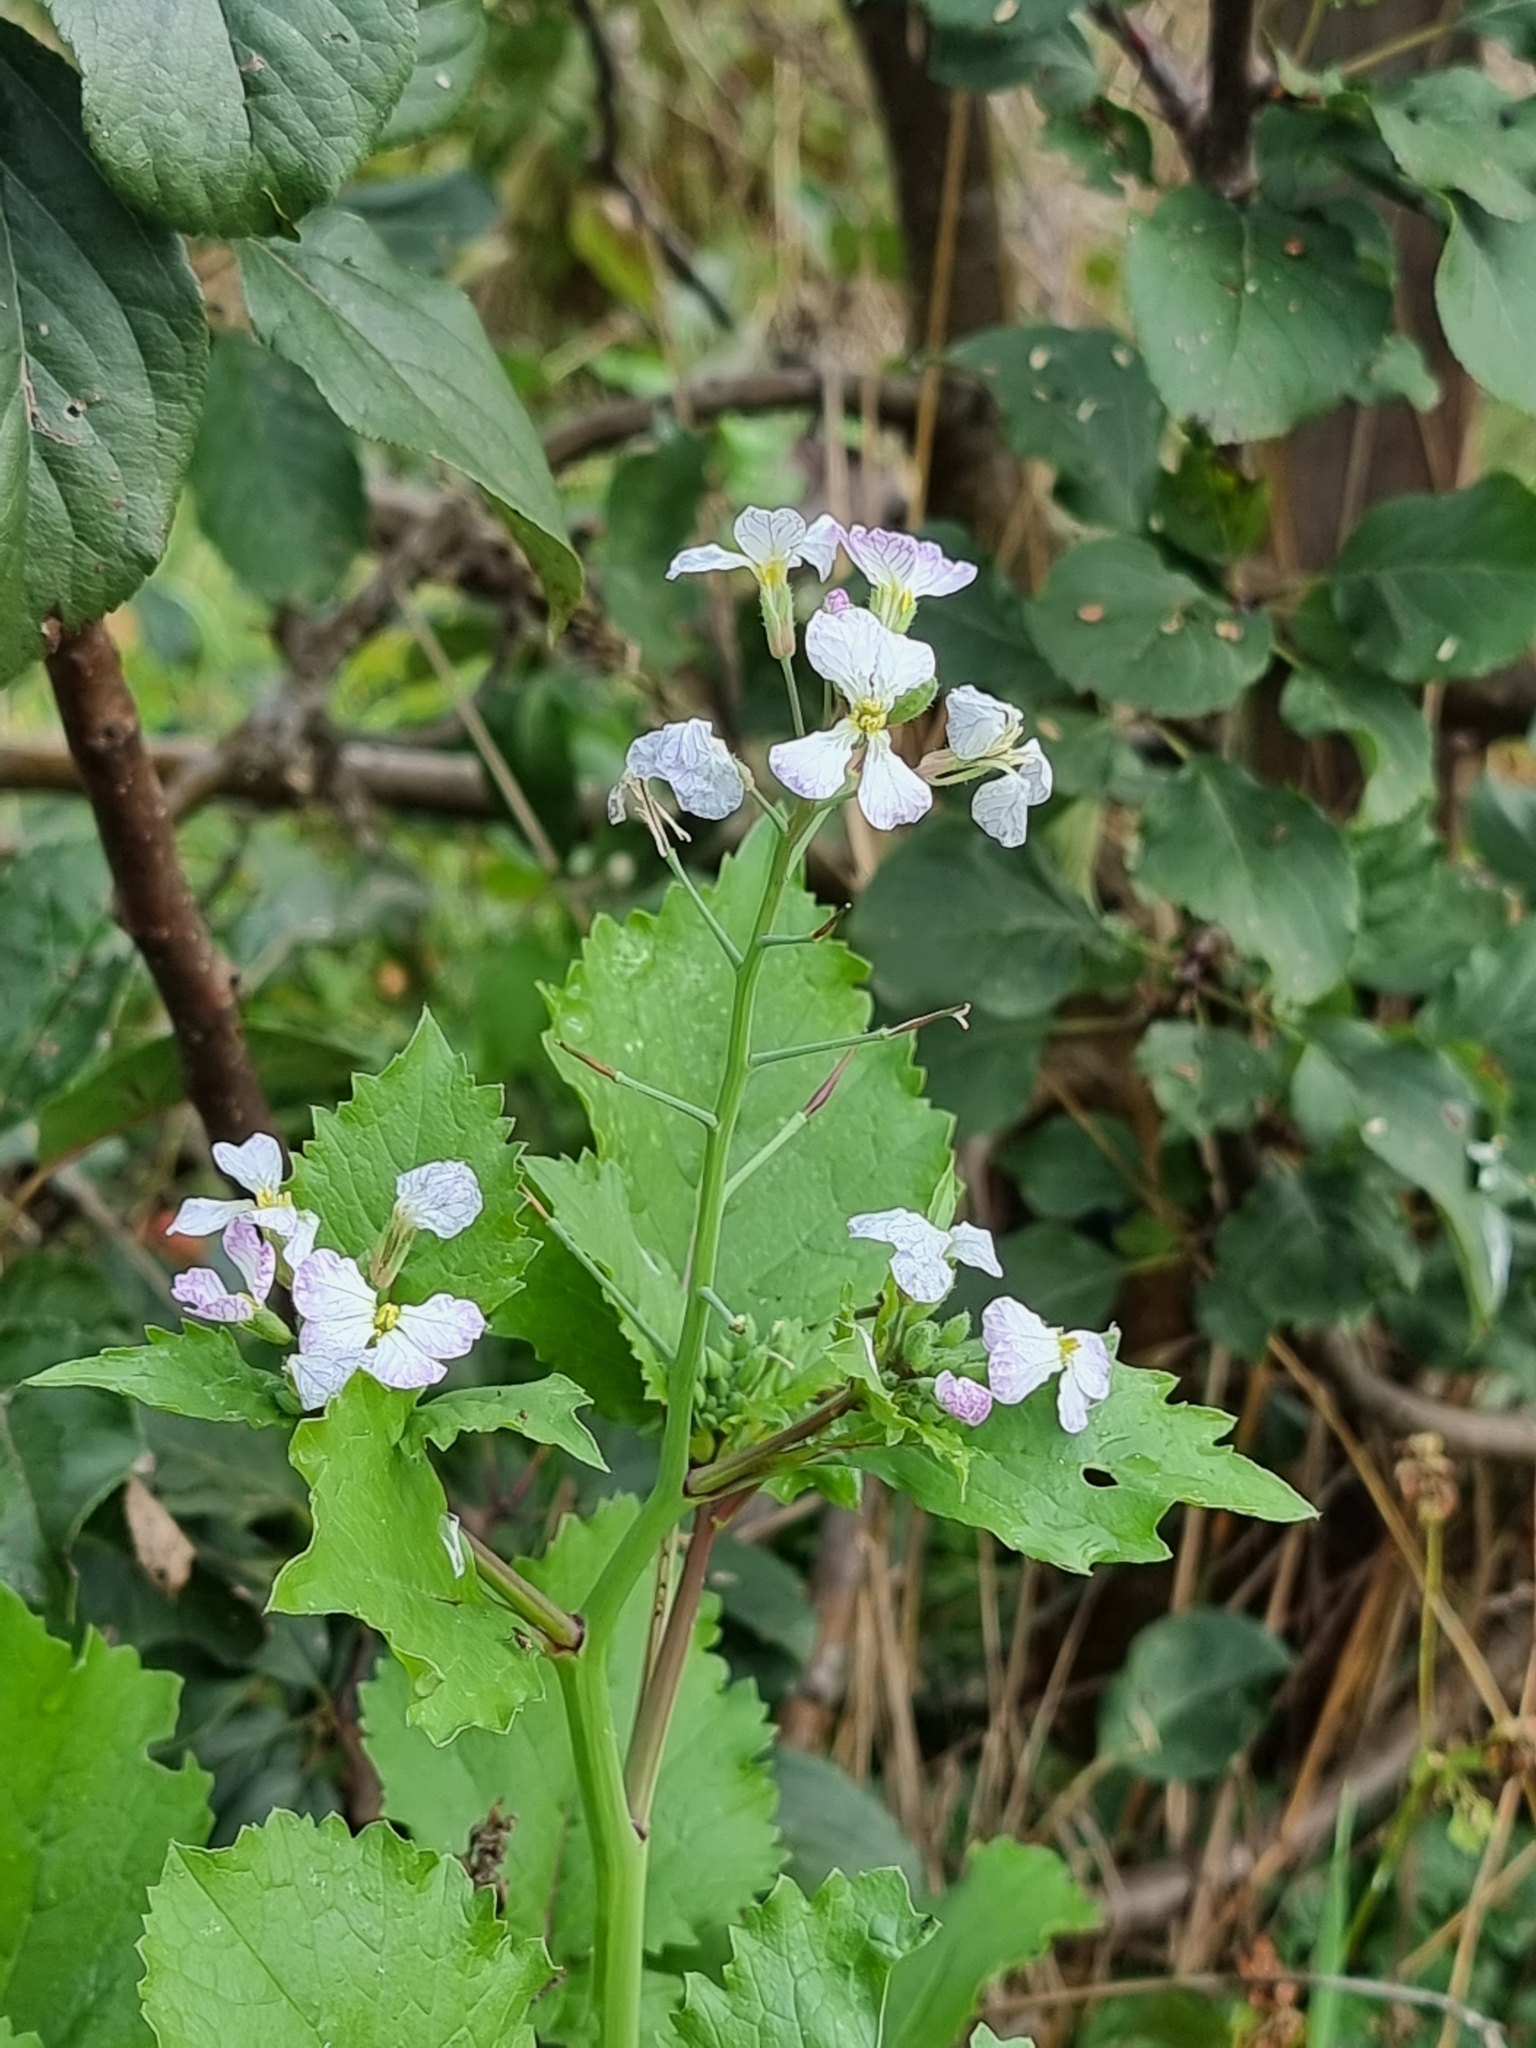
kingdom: Plantae
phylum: Tracheophyta
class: Magnoliopsida
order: Brassicales
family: Brassicaceae
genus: Raphanus
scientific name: Raphanus sativus
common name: Cultivated radish
